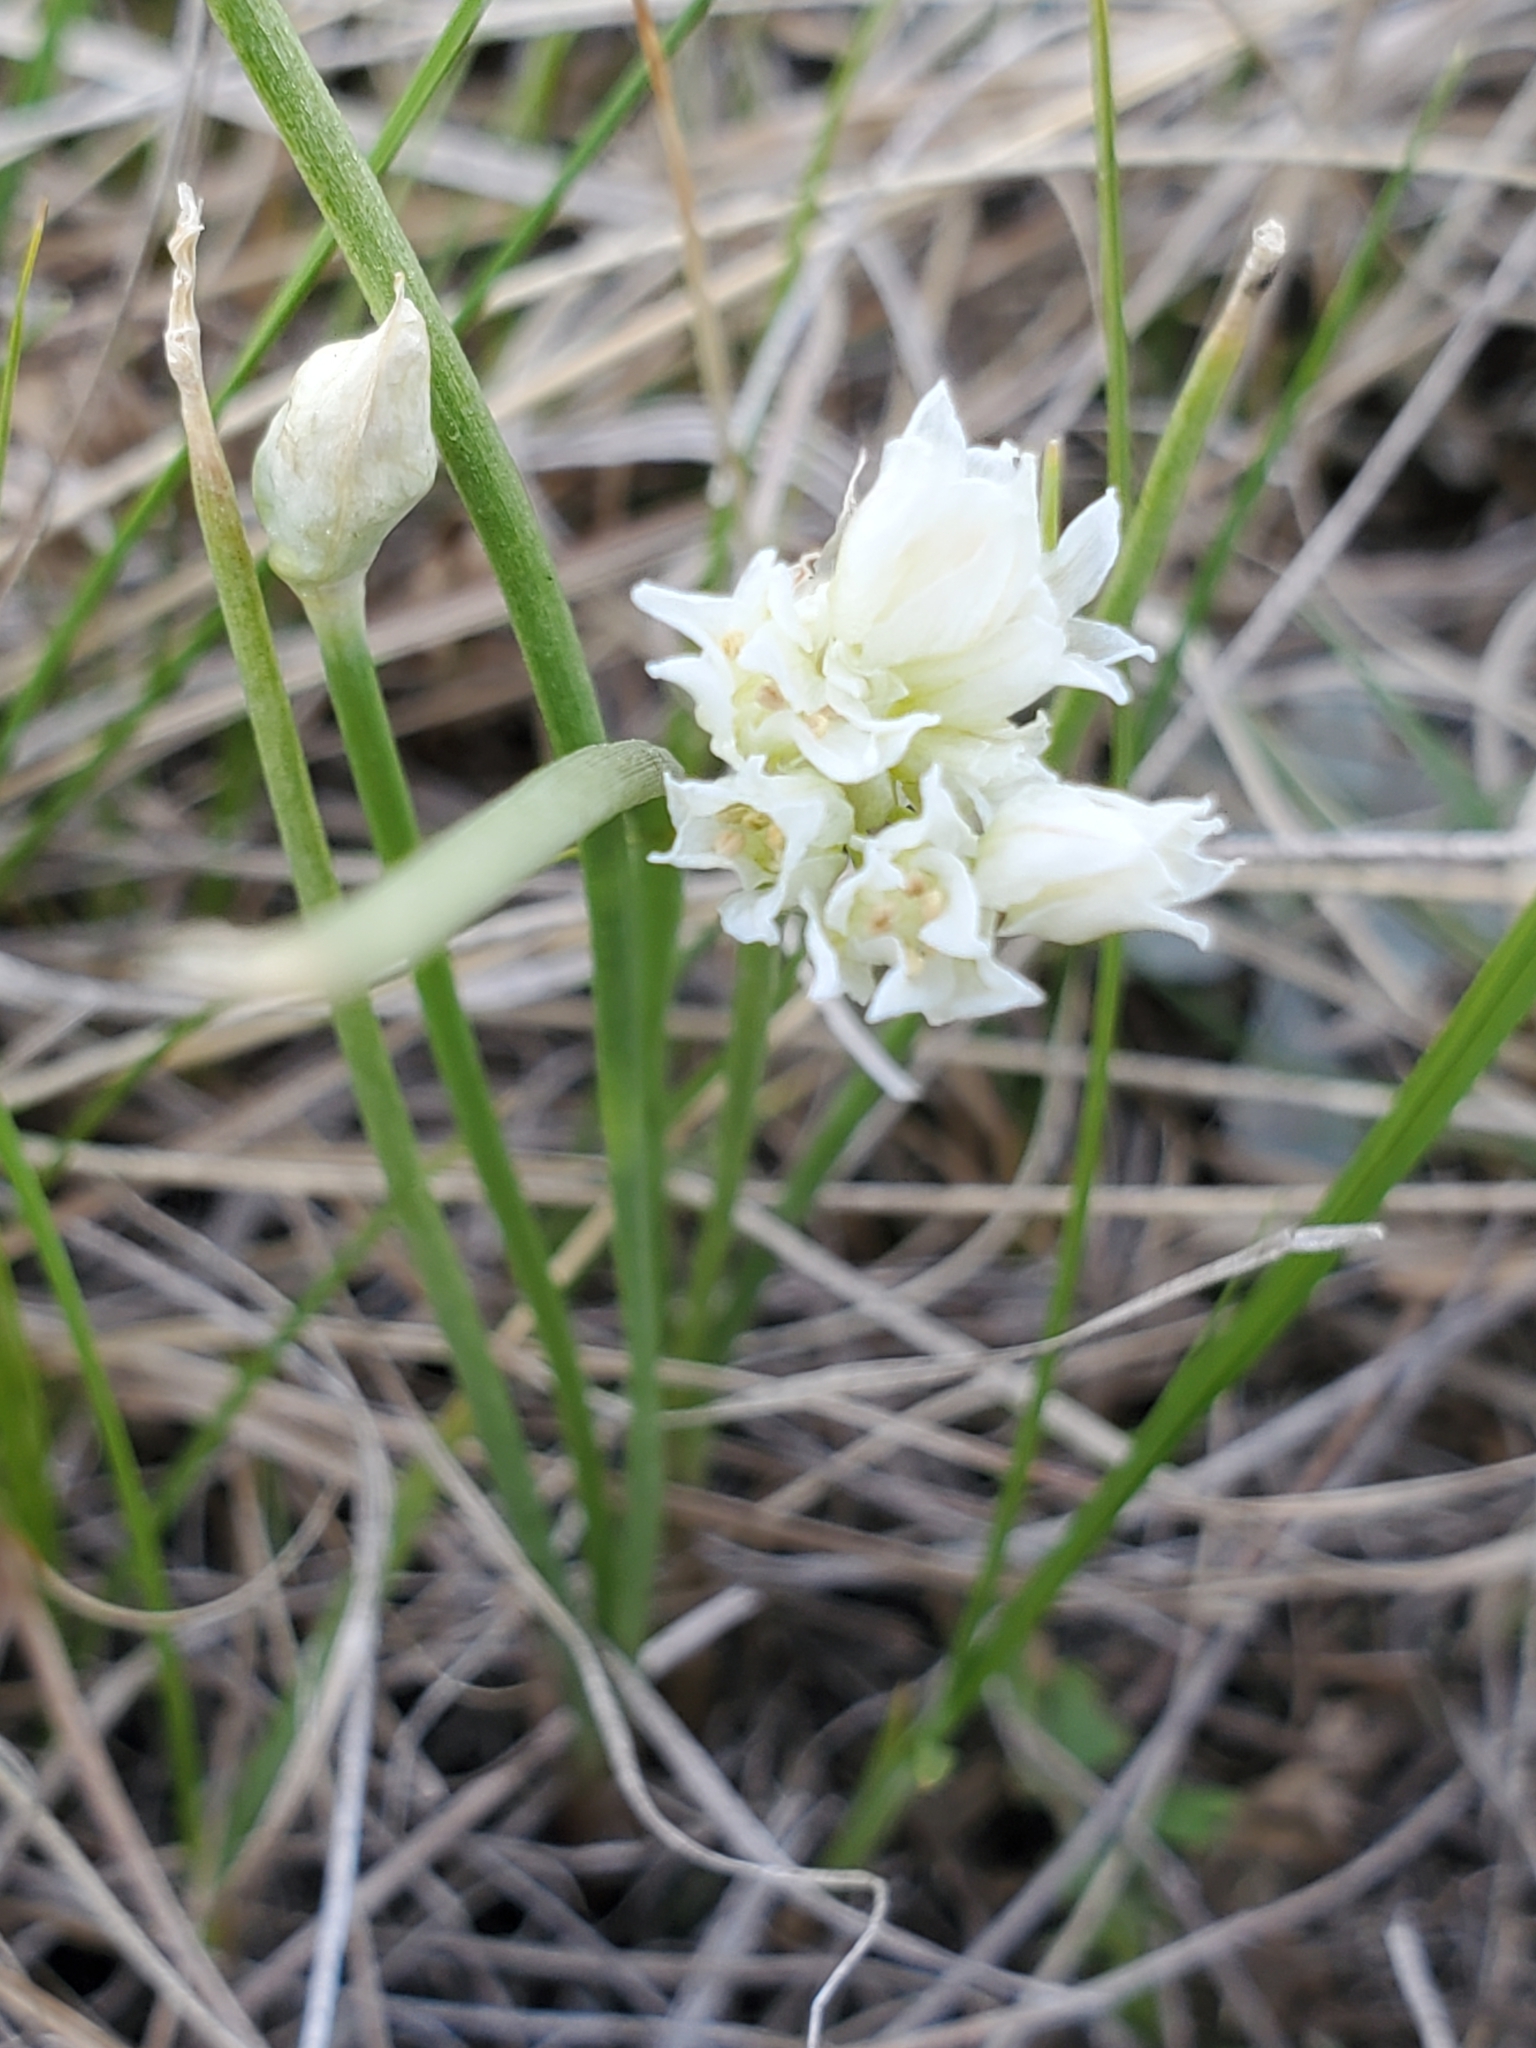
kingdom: Plantae
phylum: Tracheophyta
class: Liliopsida
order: Asparagales
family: Amaryllidaceae
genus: Allium
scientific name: Allium textile
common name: Prairie onion
